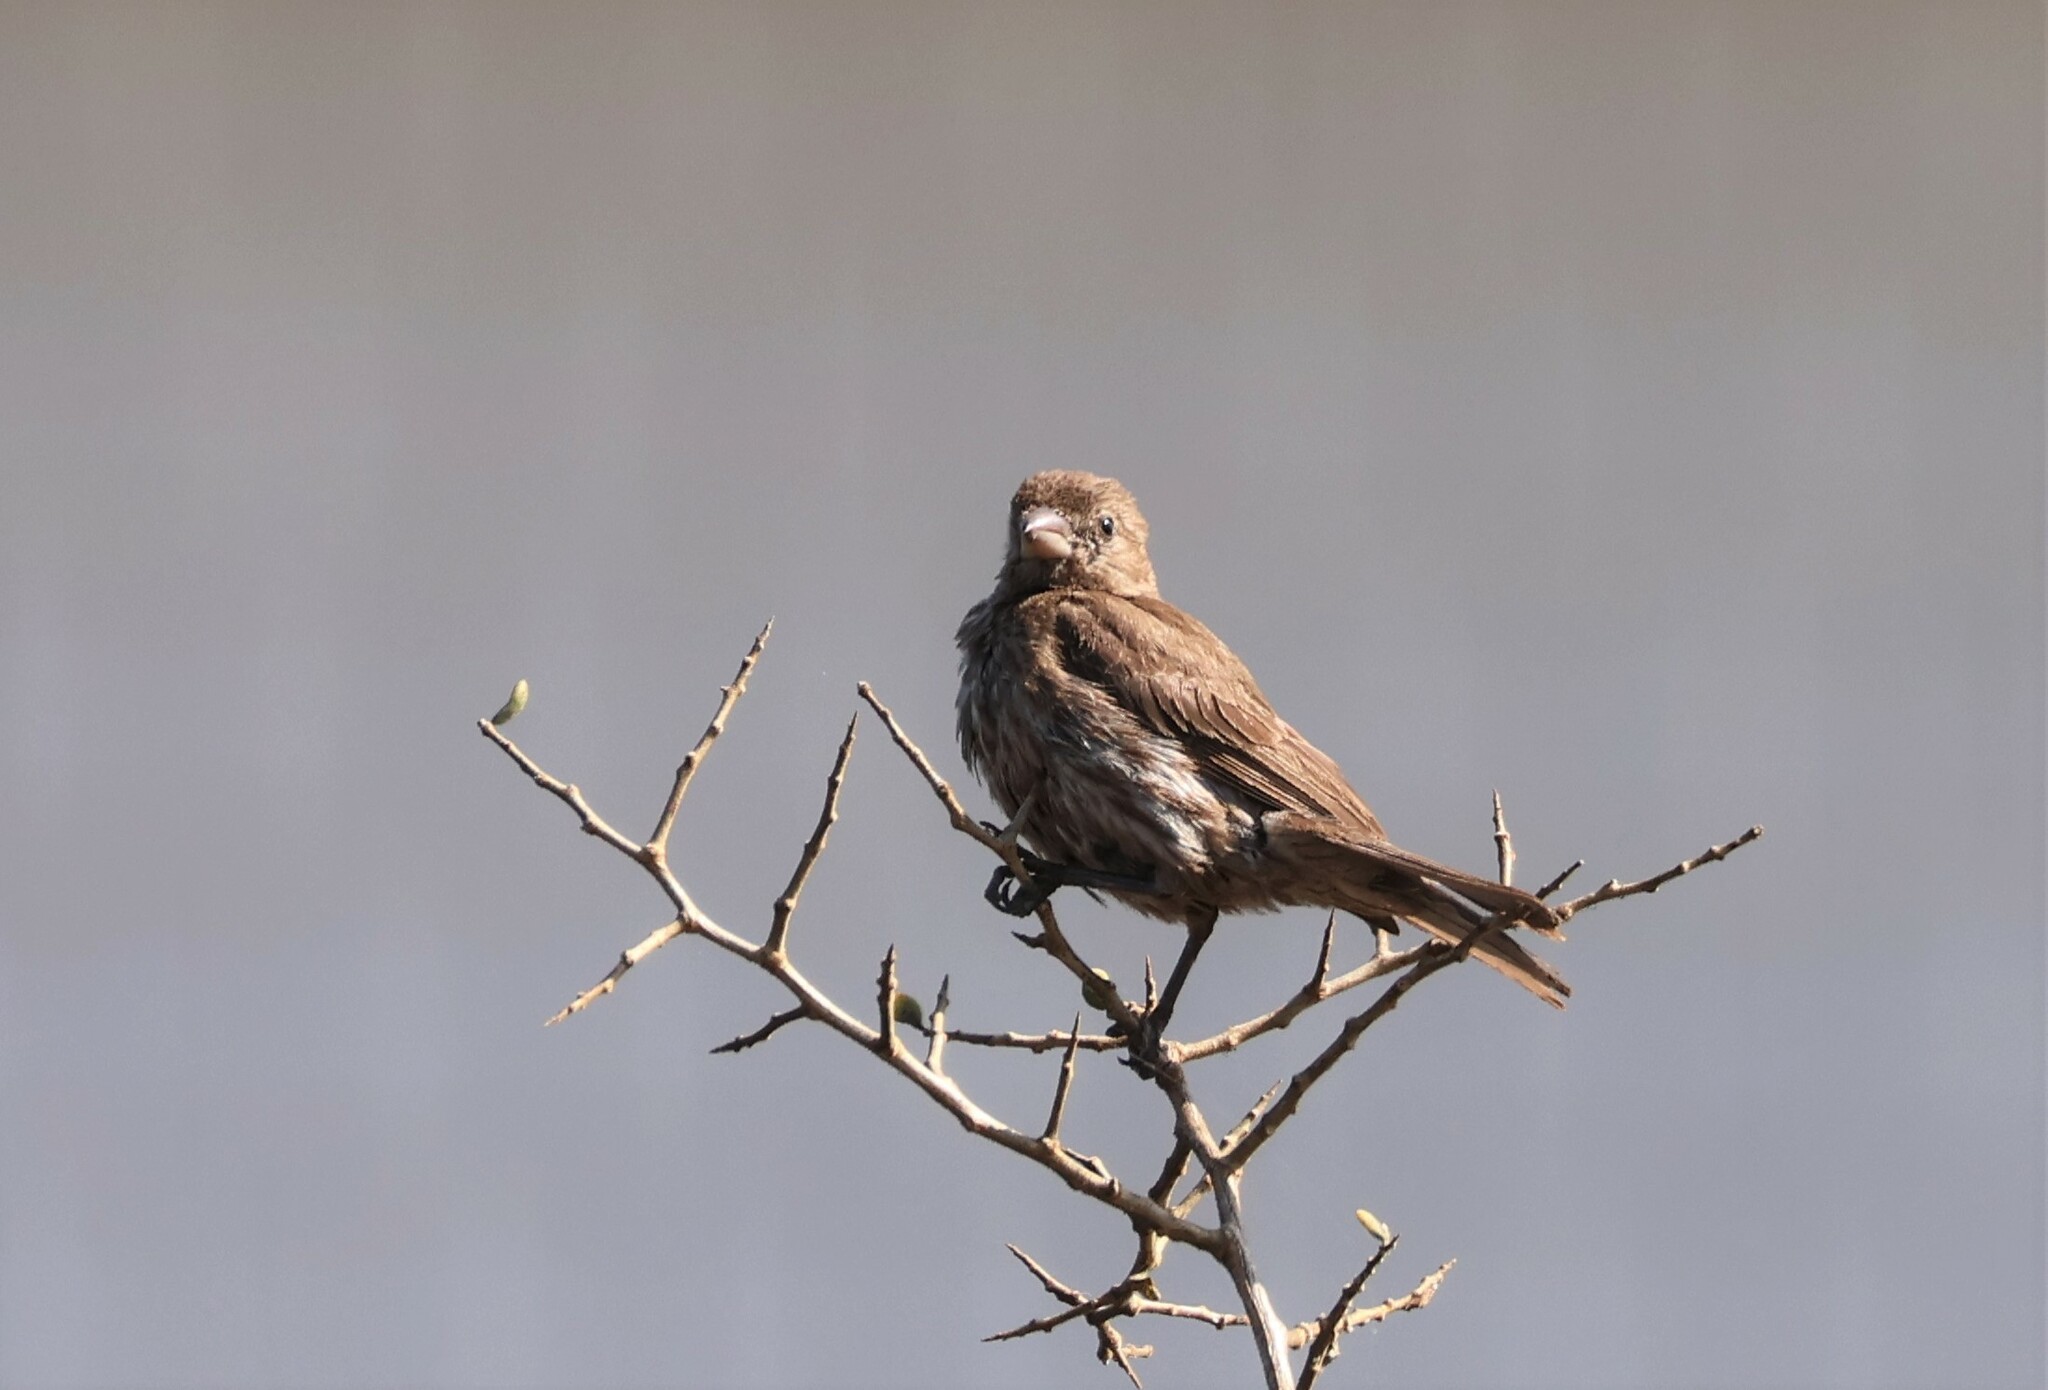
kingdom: Animalia
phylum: Chordata
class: Aves
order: Passeriformes
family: Fringillidae
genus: Haemorhous
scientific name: Haemorhous mexicanus
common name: House finch
